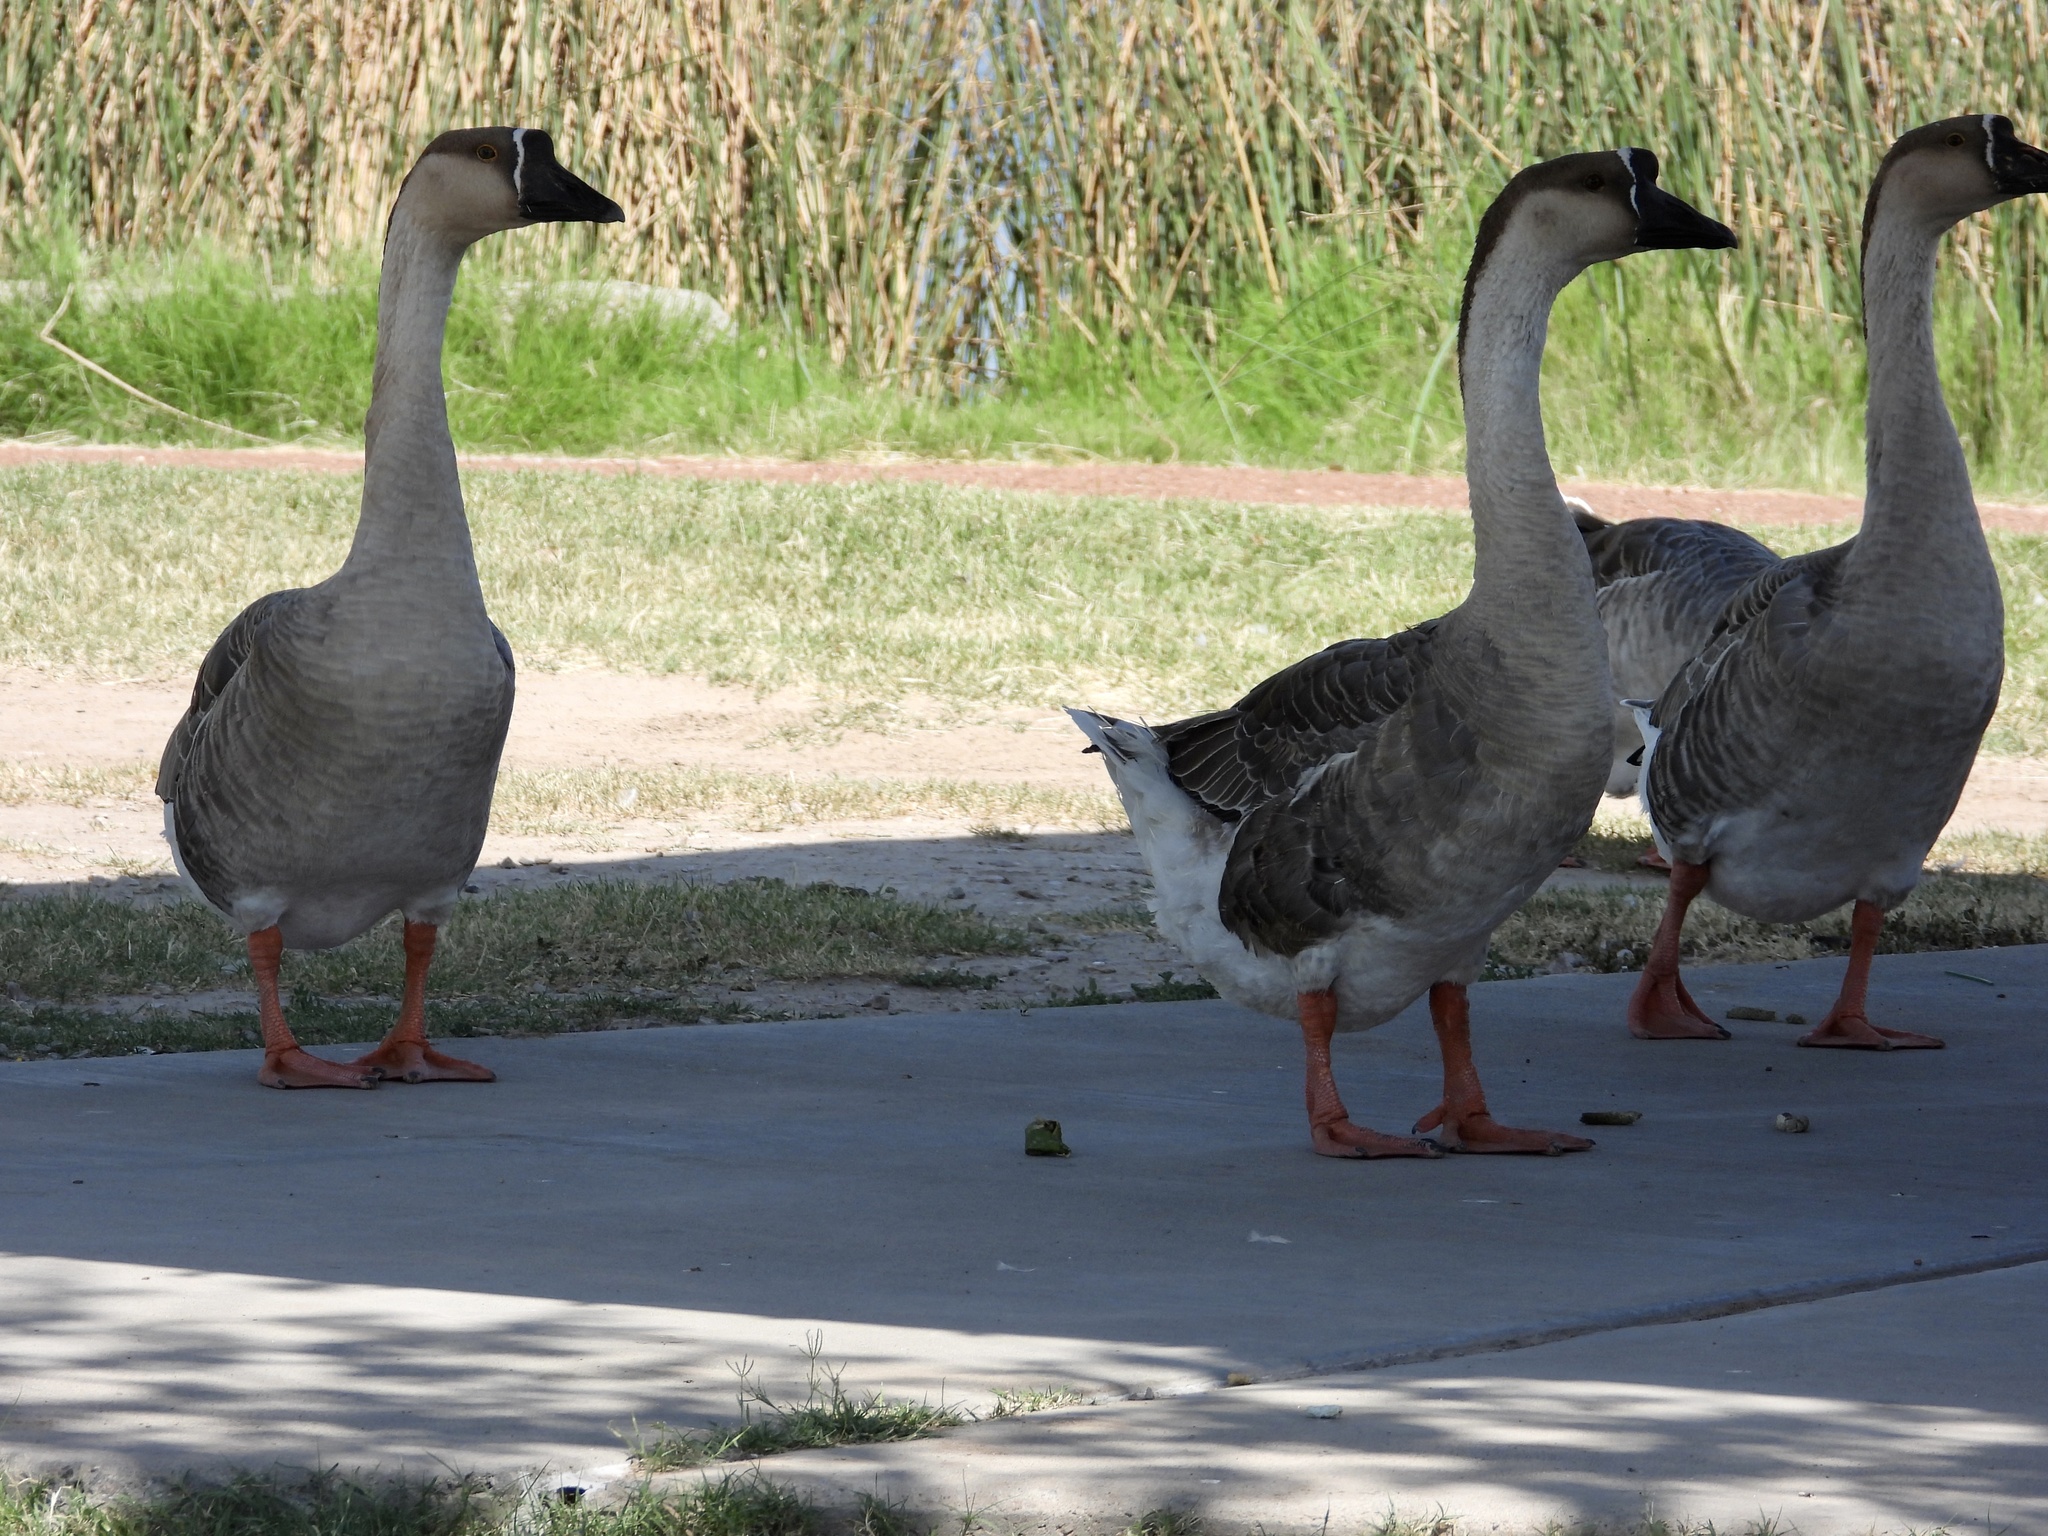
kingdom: Animalia
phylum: Chordata
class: Aves
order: Anseriformes
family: Anatidae
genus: Anser
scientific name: Anser cygnoides
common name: Swan goose
